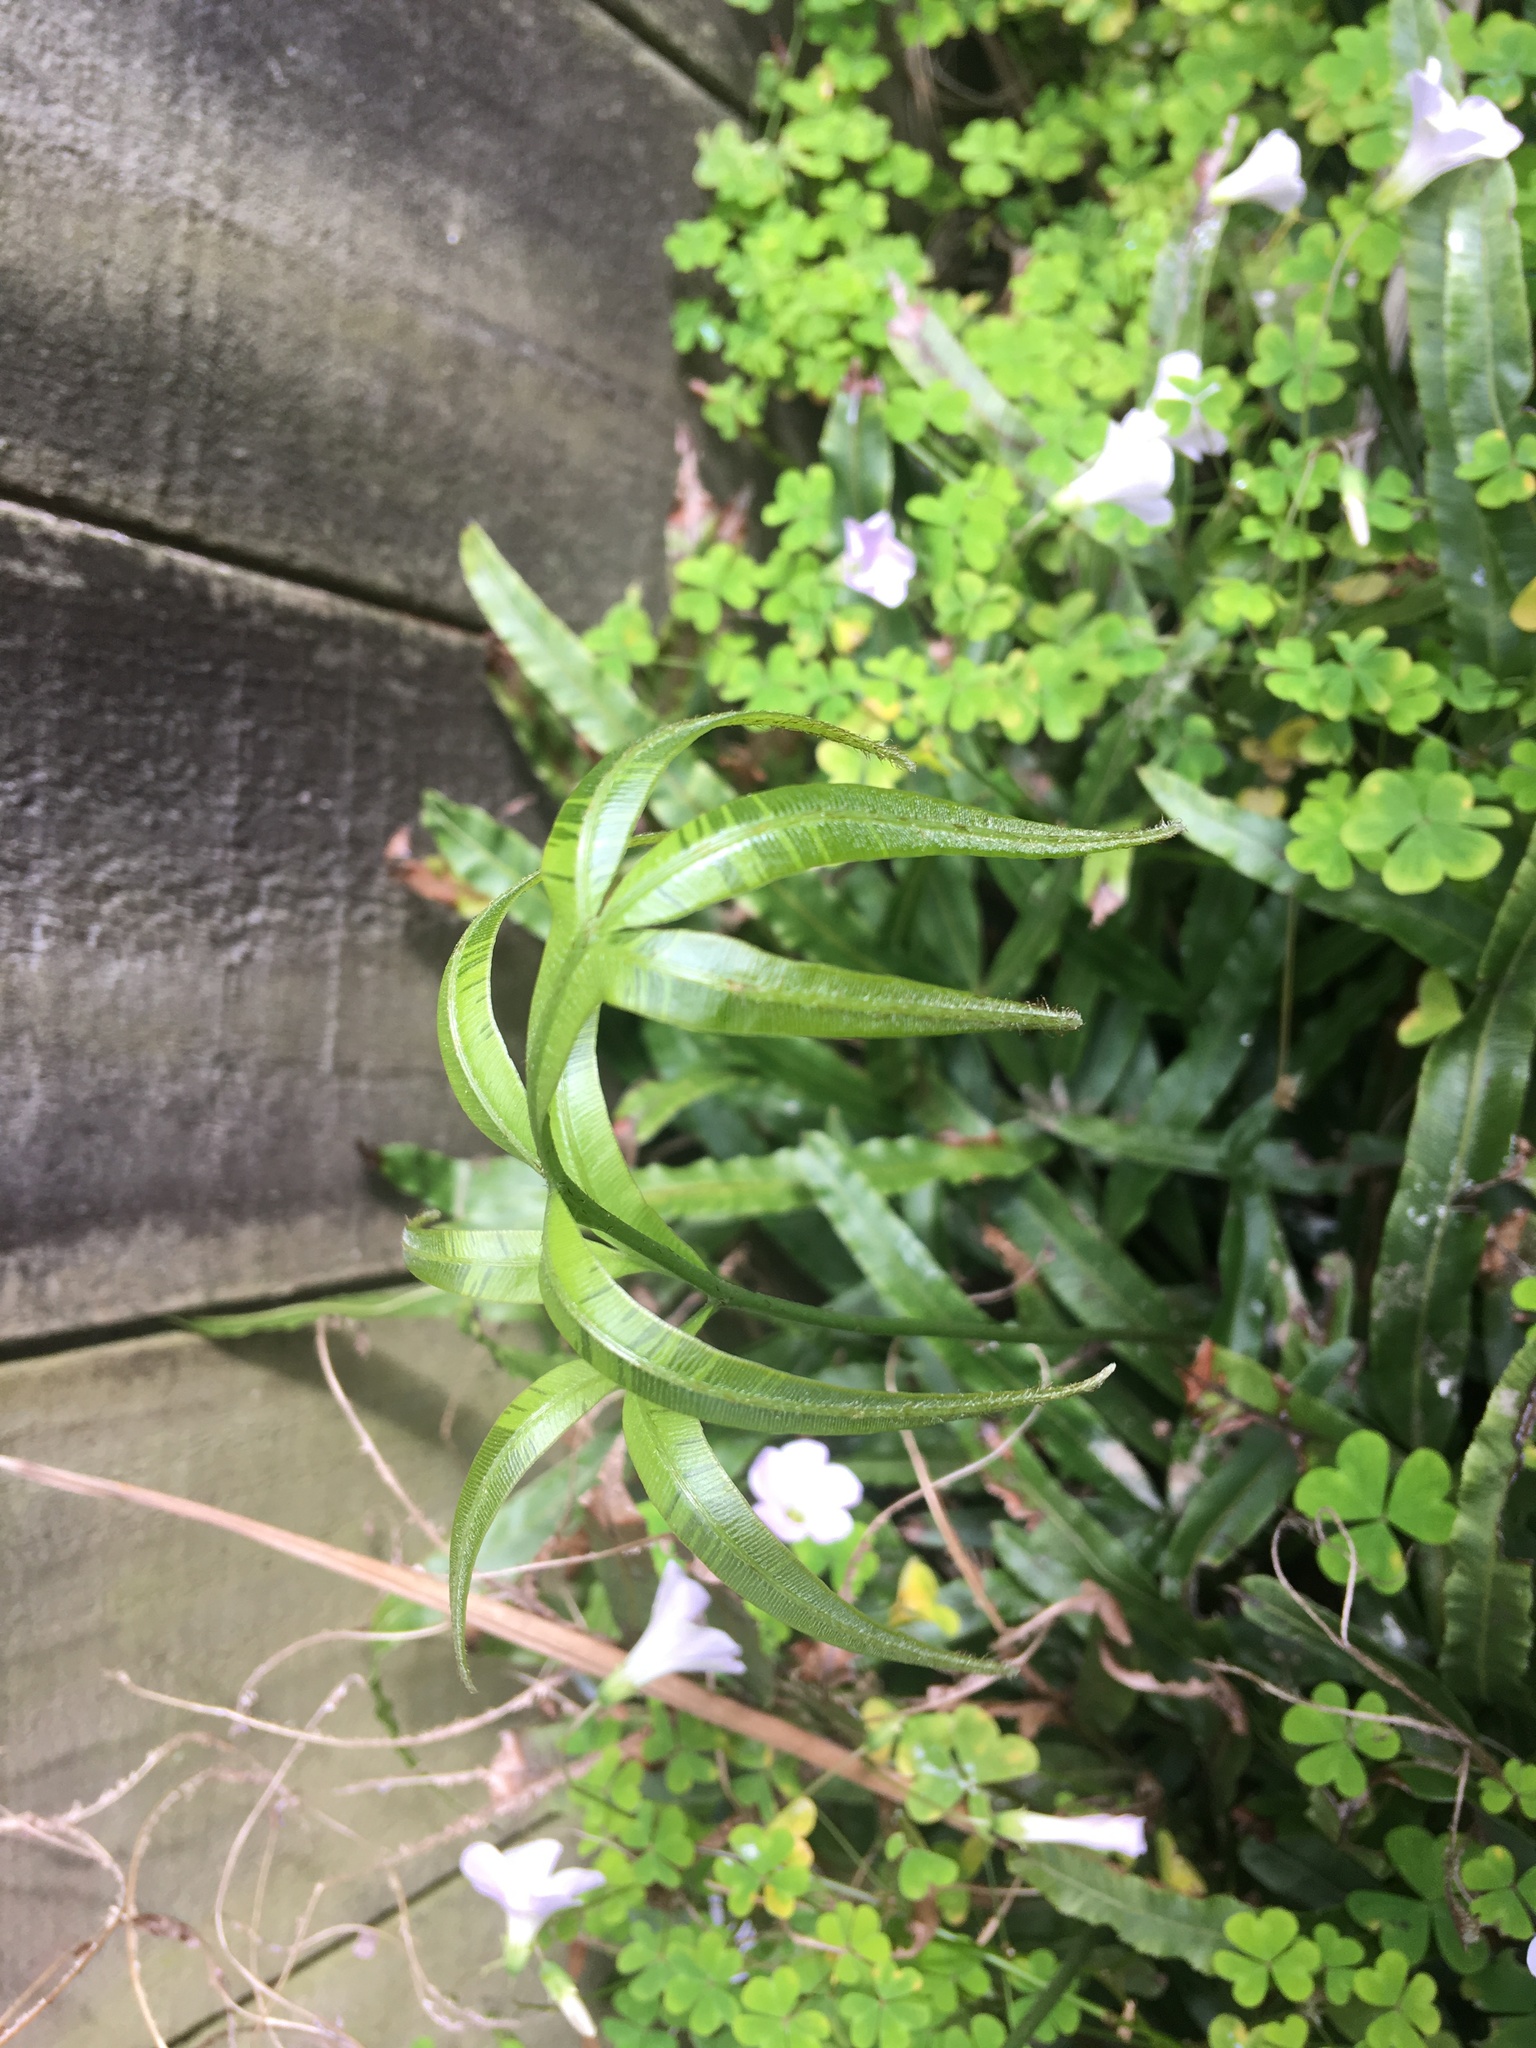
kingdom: Plantae
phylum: Tracheophyta
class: Polypodiopsida
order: Polypodiales
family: Pteridaceae
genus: Pteris
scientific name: Pteris cretica
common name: Ribbon fern
